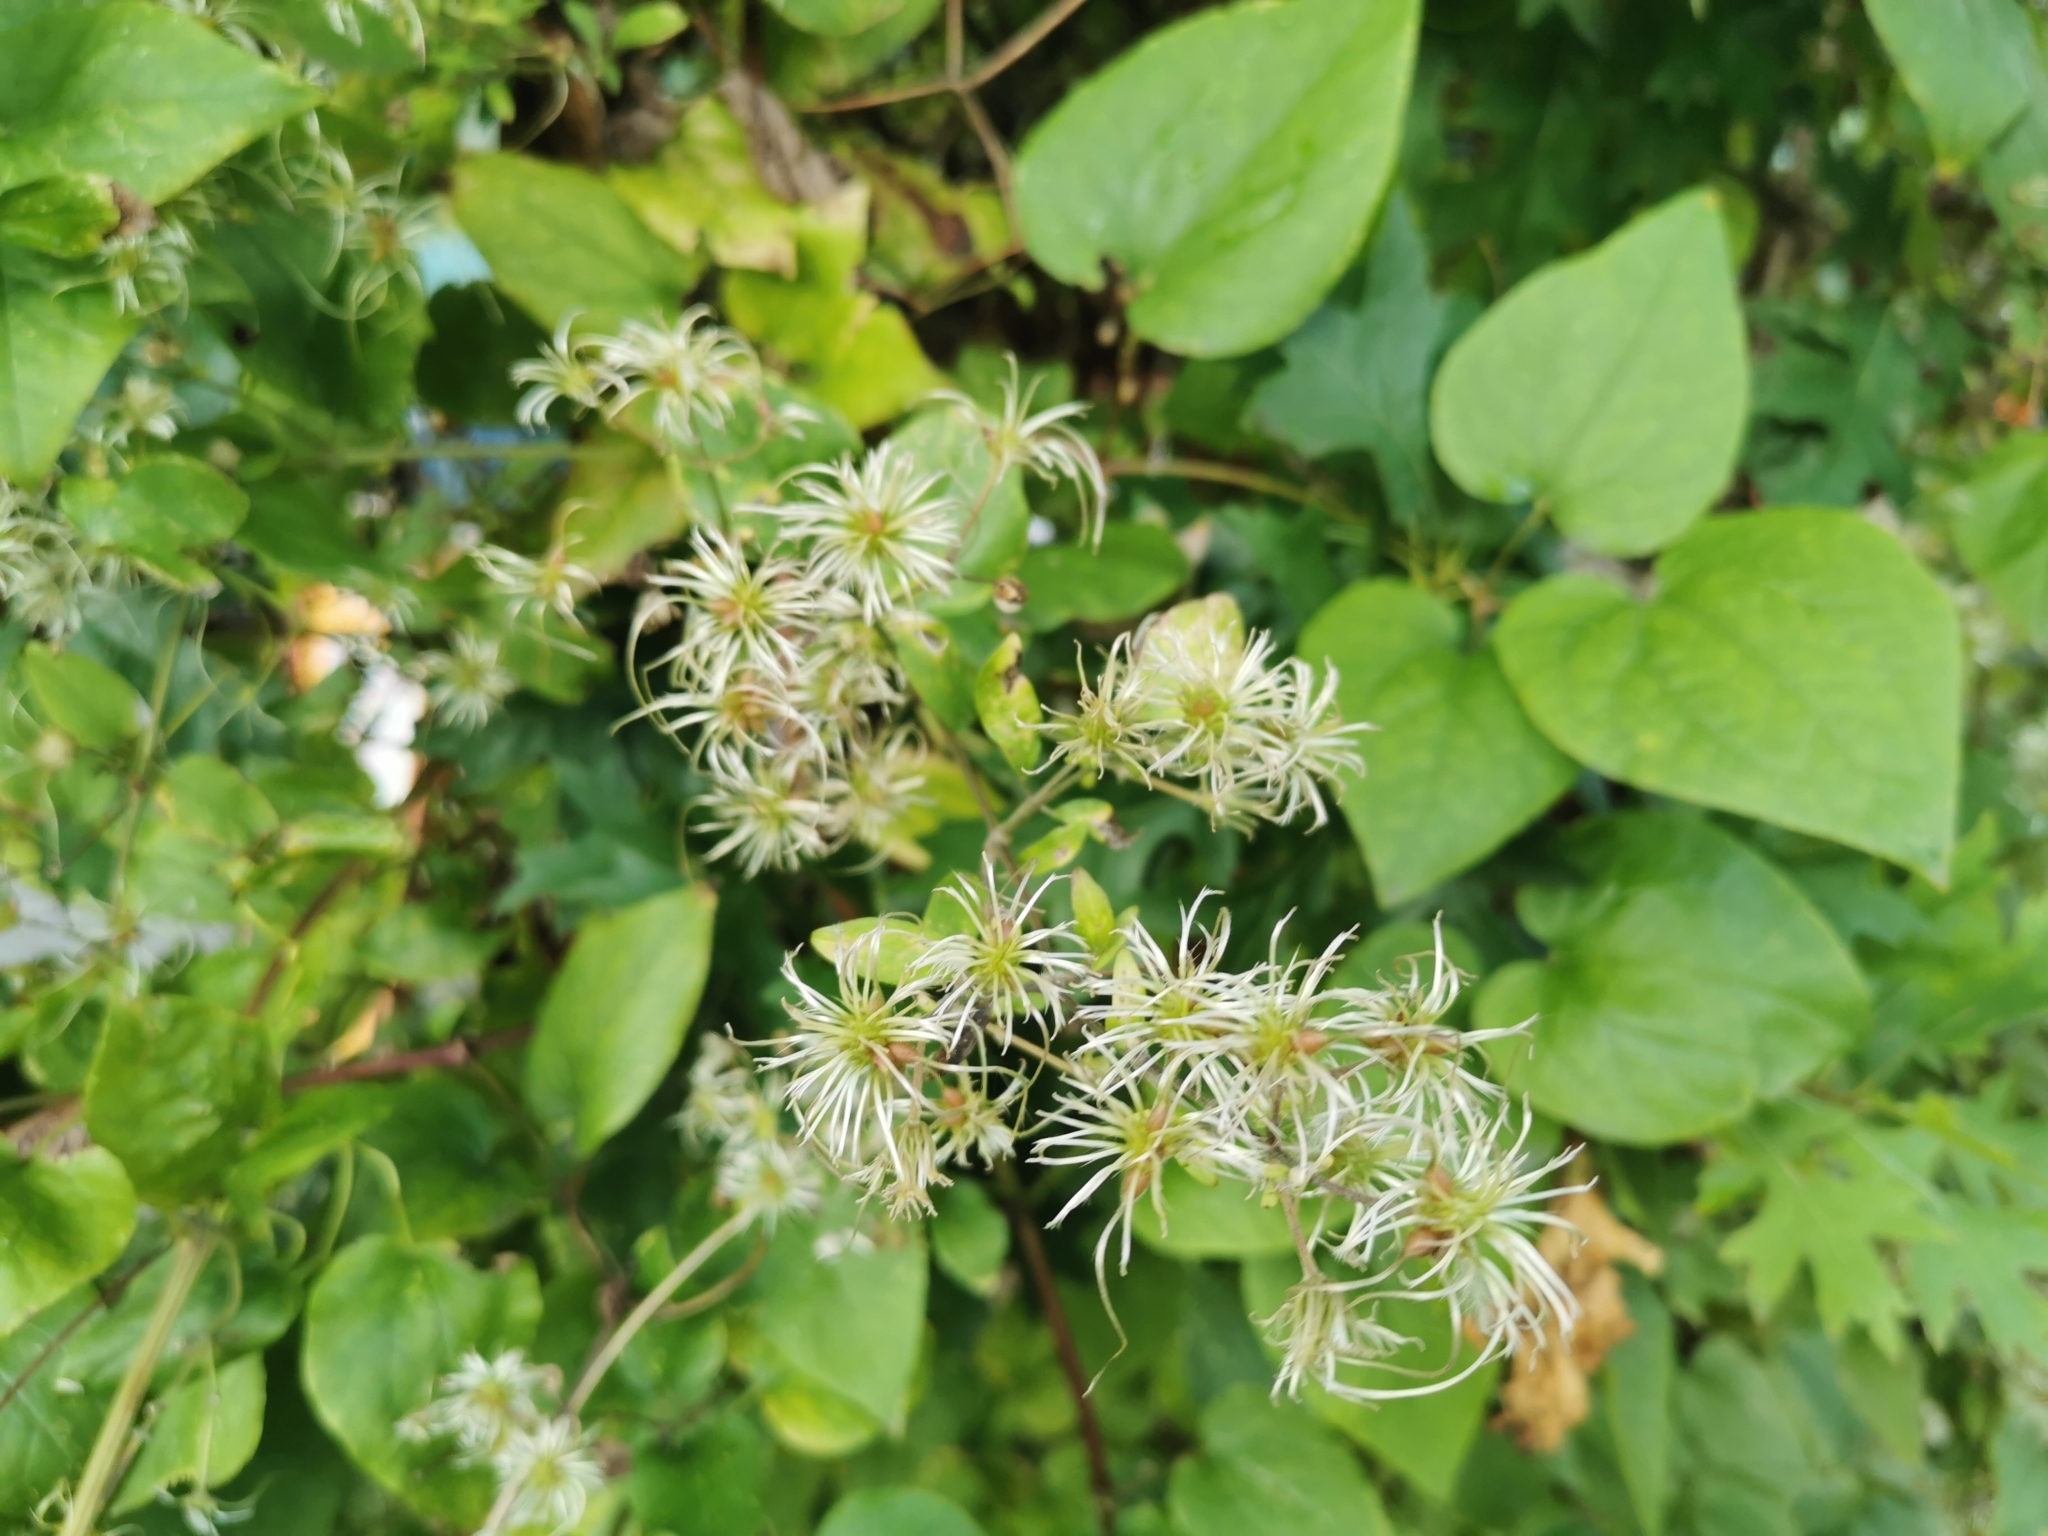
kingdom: Plantae
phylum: Tracheophyta
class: Magnoliopsida
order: Ranunculales
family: Ranunculaceae
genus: Clematis
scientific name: Clematis vitalba
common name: Evergreen clematis
